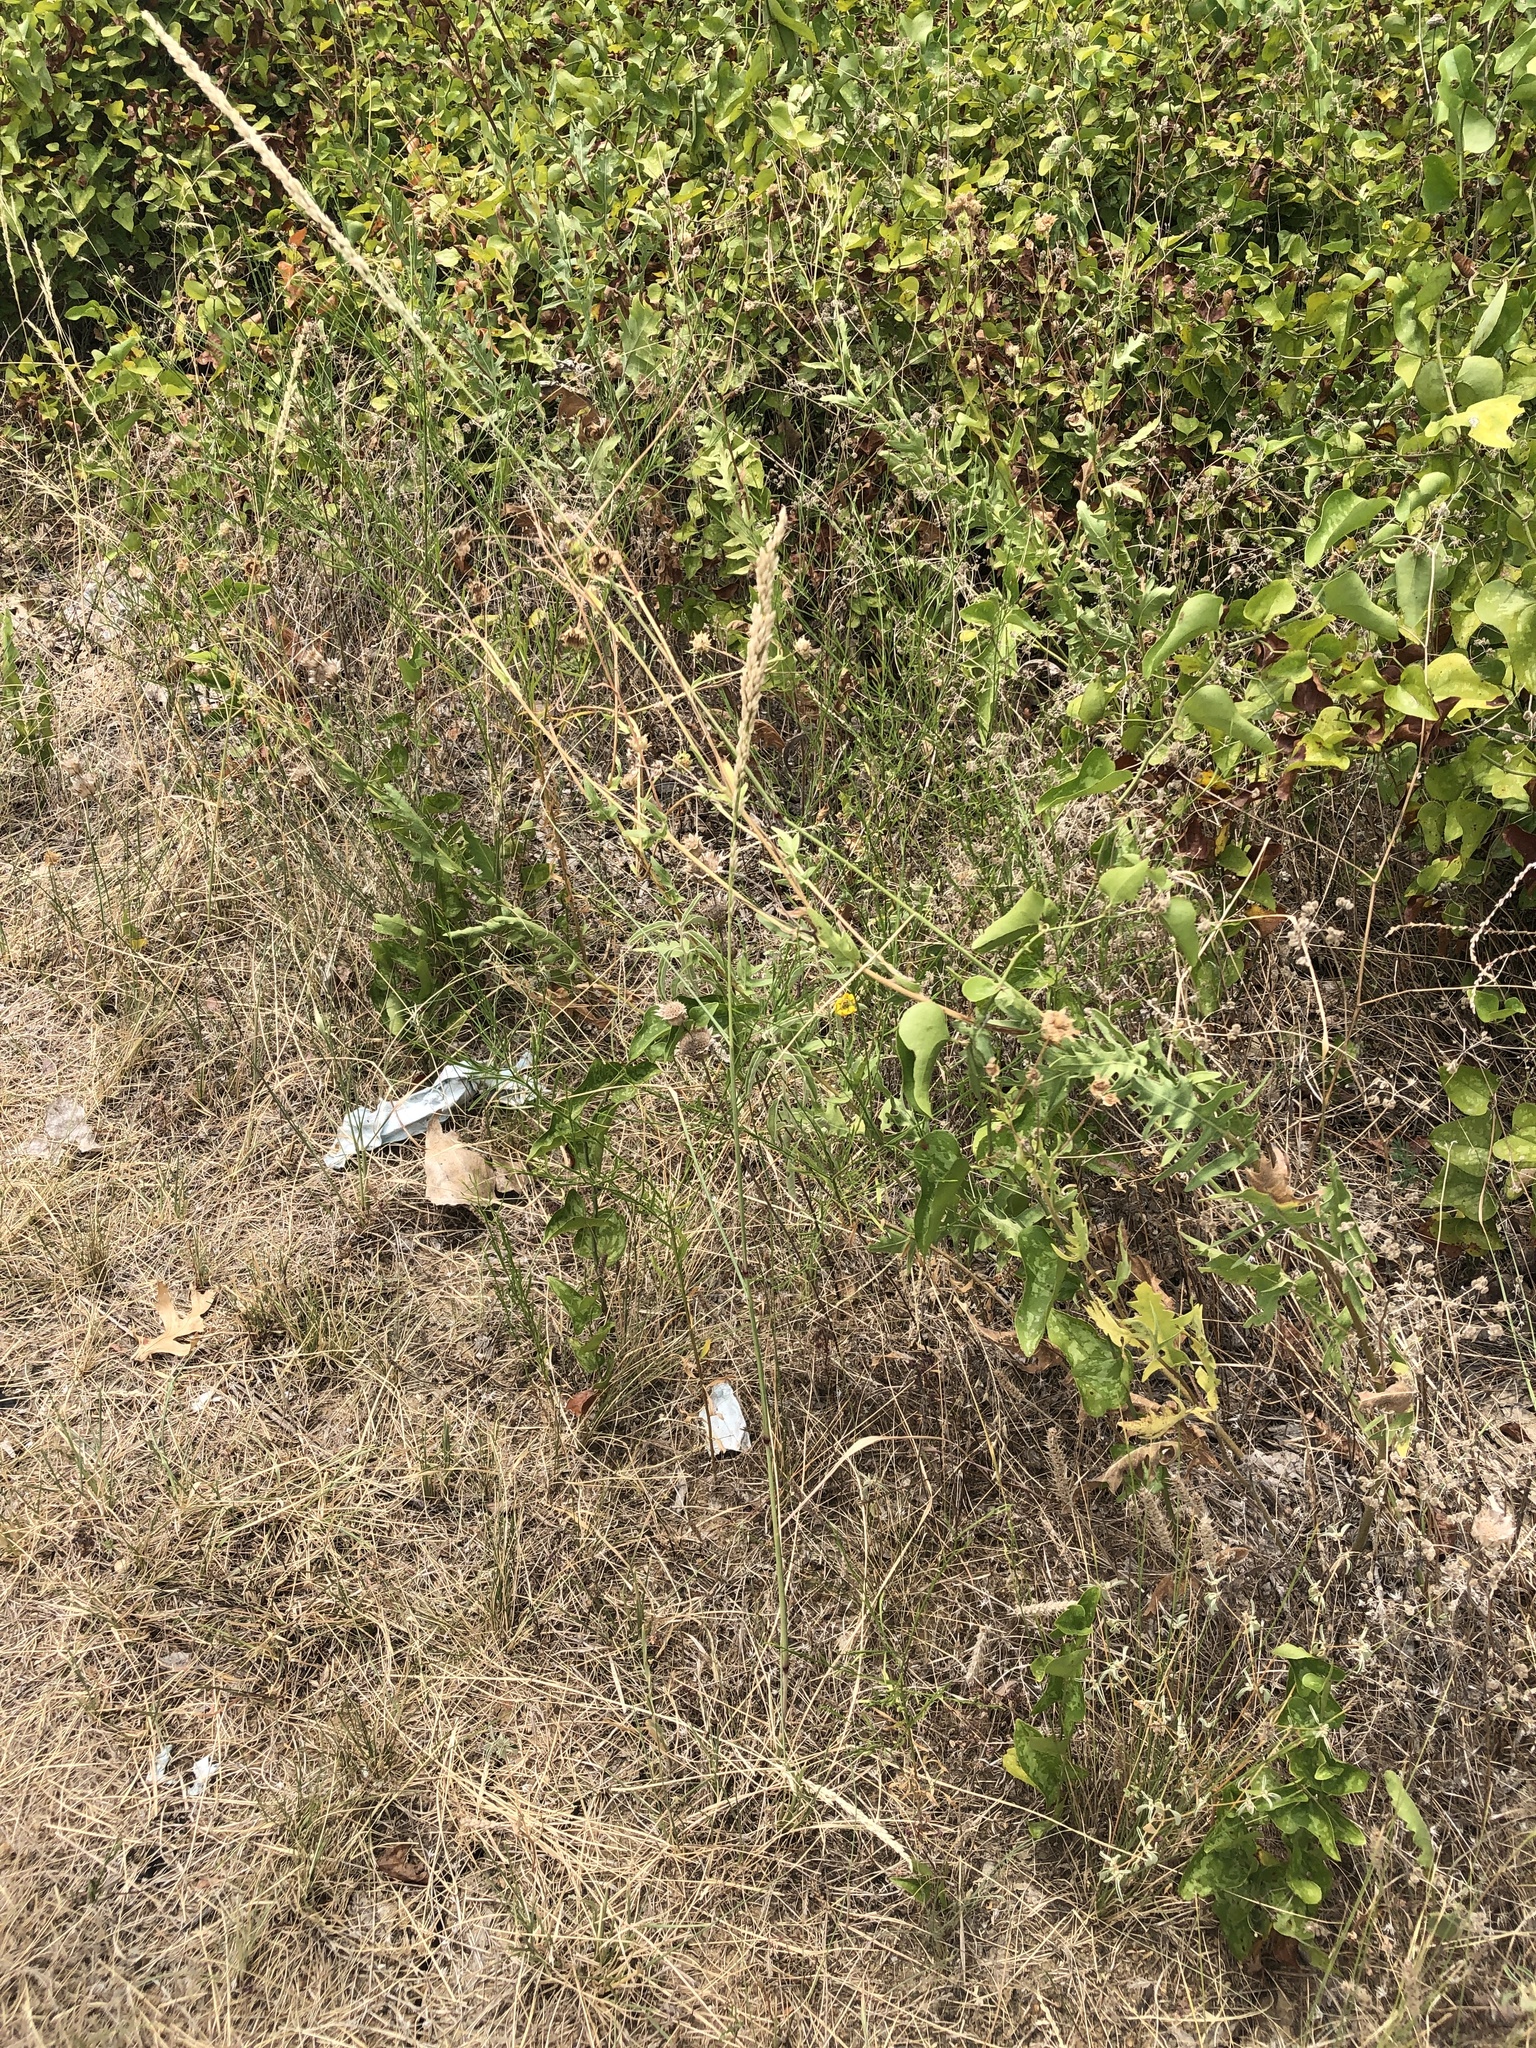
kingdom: Plantae
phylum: Tracheophyta
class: Liliopsida
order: Poales
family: Poaceae
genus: Tridens
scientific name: Tridens albescens
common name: White tridens
